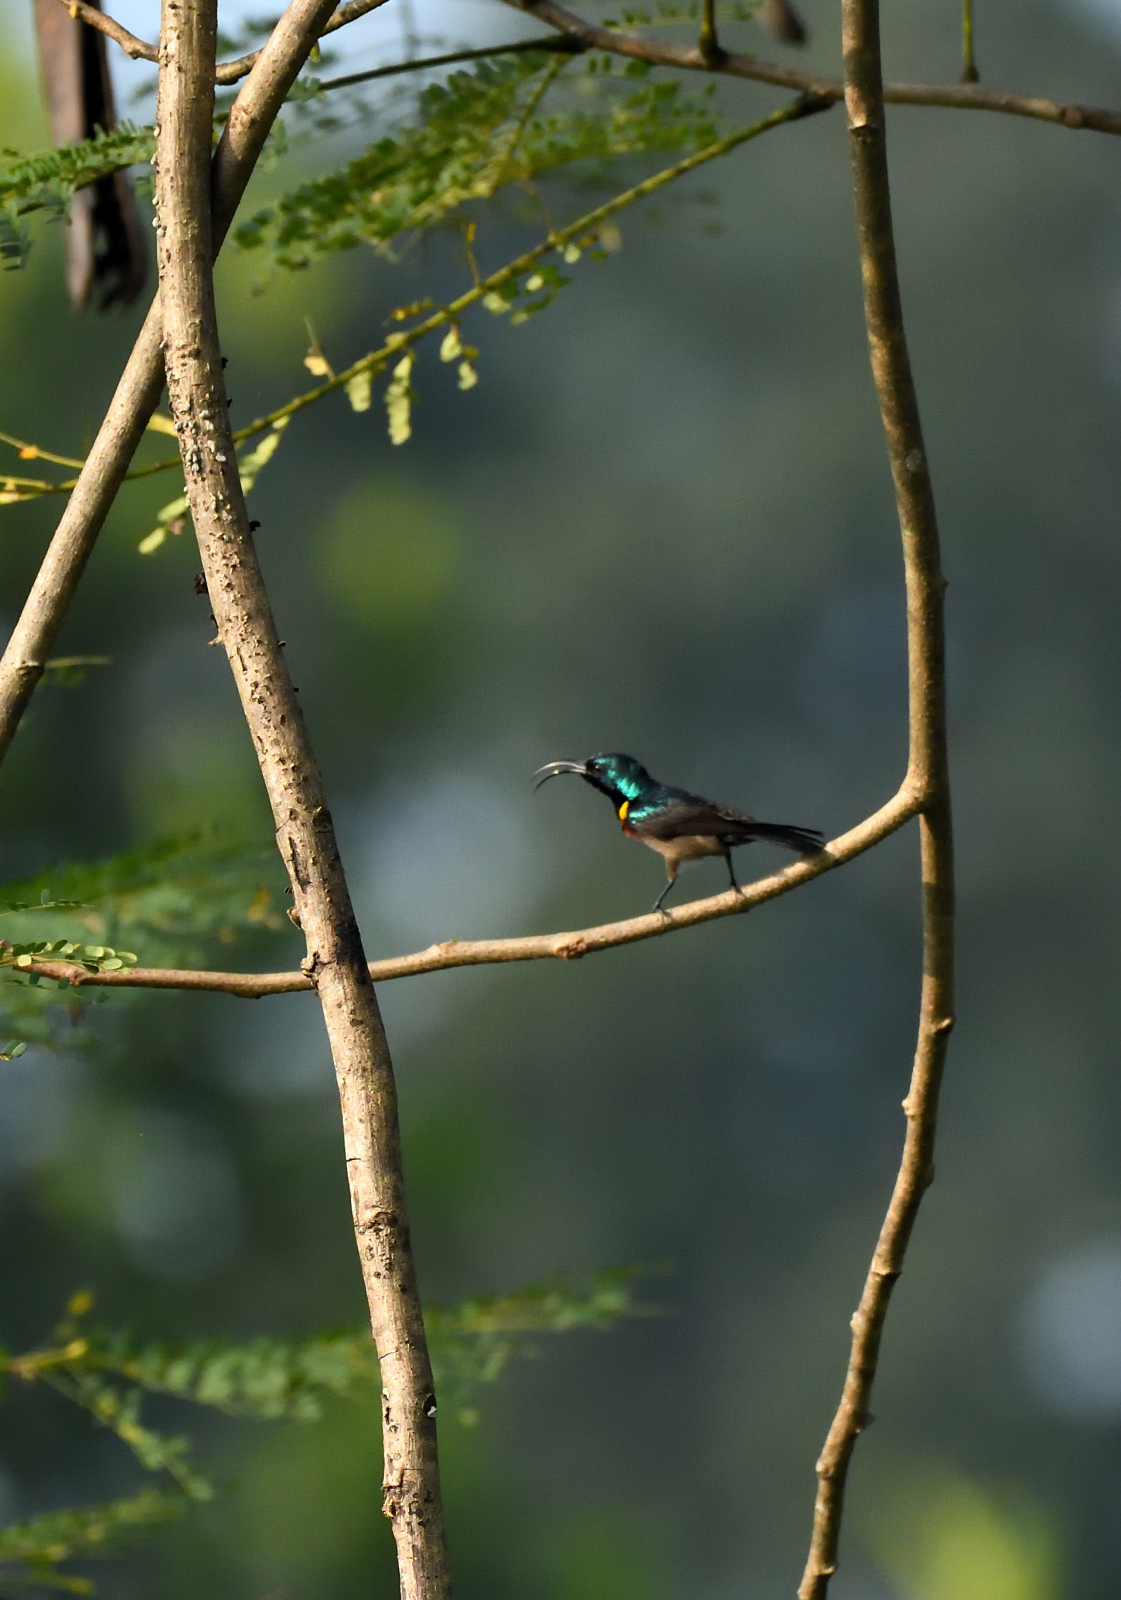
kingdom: Animalia
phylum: Chordata
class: Aves
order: Passeriformes
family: Nectariniidae
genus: Cinnyris
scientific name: Cinnyris lotenius
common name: Loten's sunbird
